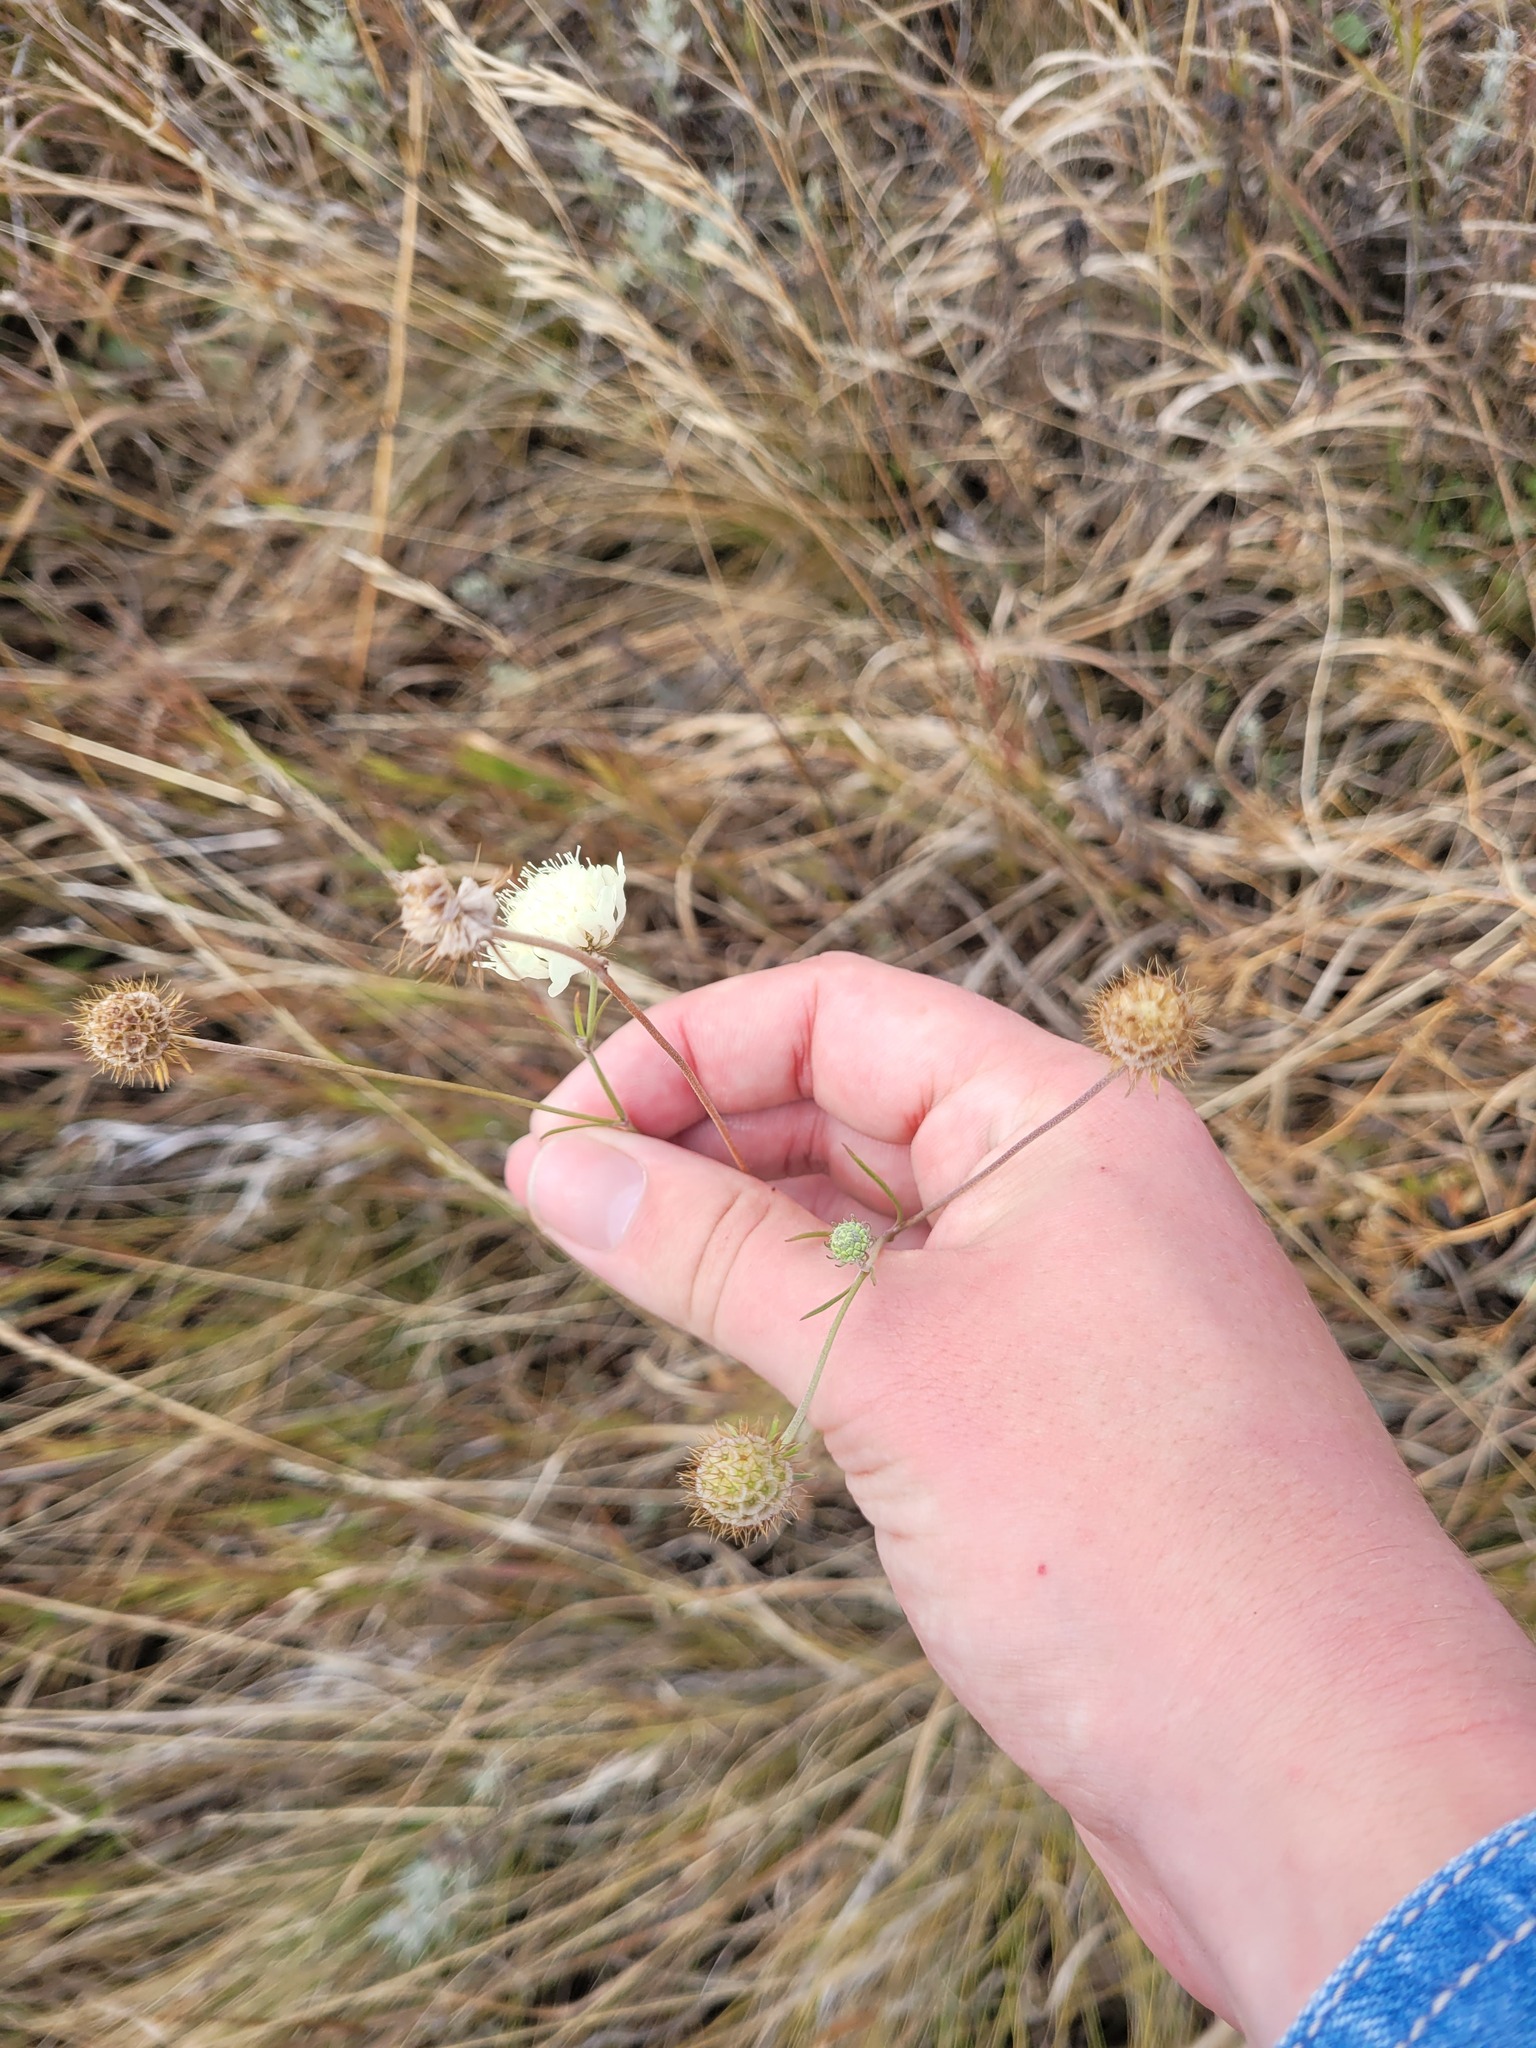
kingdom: Plantae
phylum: Tracheophyta
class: Magnoliopsida
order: Dipsacales
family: Caprifoliaceae
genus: Scabiosa
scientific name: Scabiosa ochroleuca
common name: Cream pincushions
